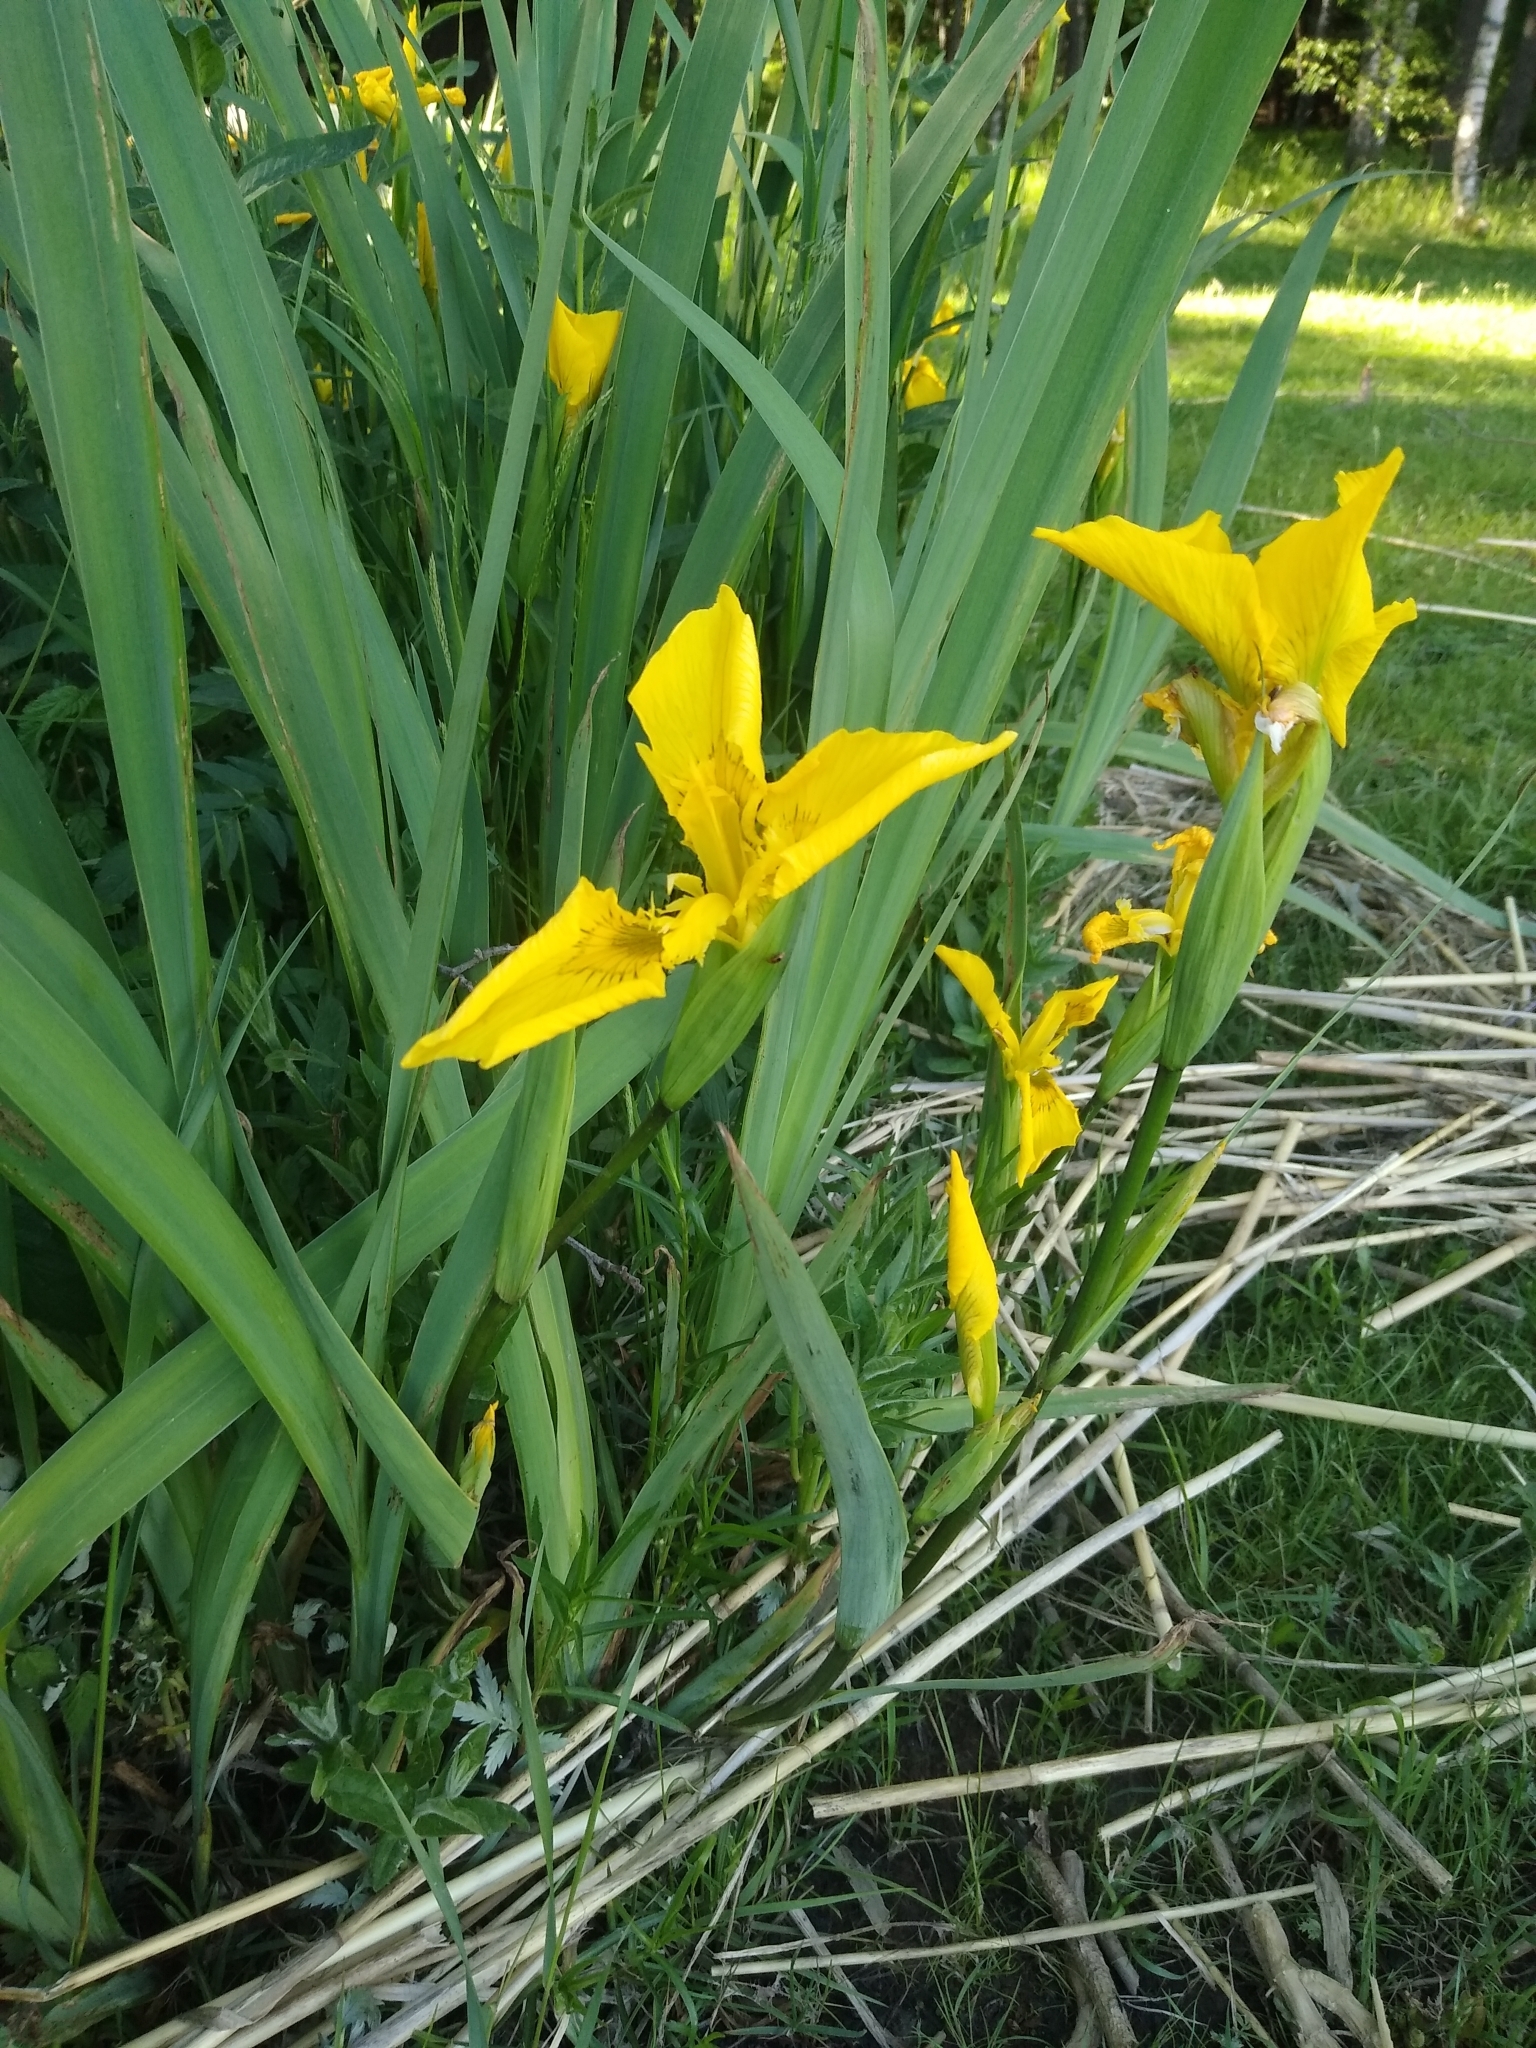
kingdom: Plantae
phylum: Tracheophyta
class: Liliopsida
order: Asparagales
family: Iridaceae
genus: Iris
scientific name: Iris pseudacorus
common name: Yellow flag
